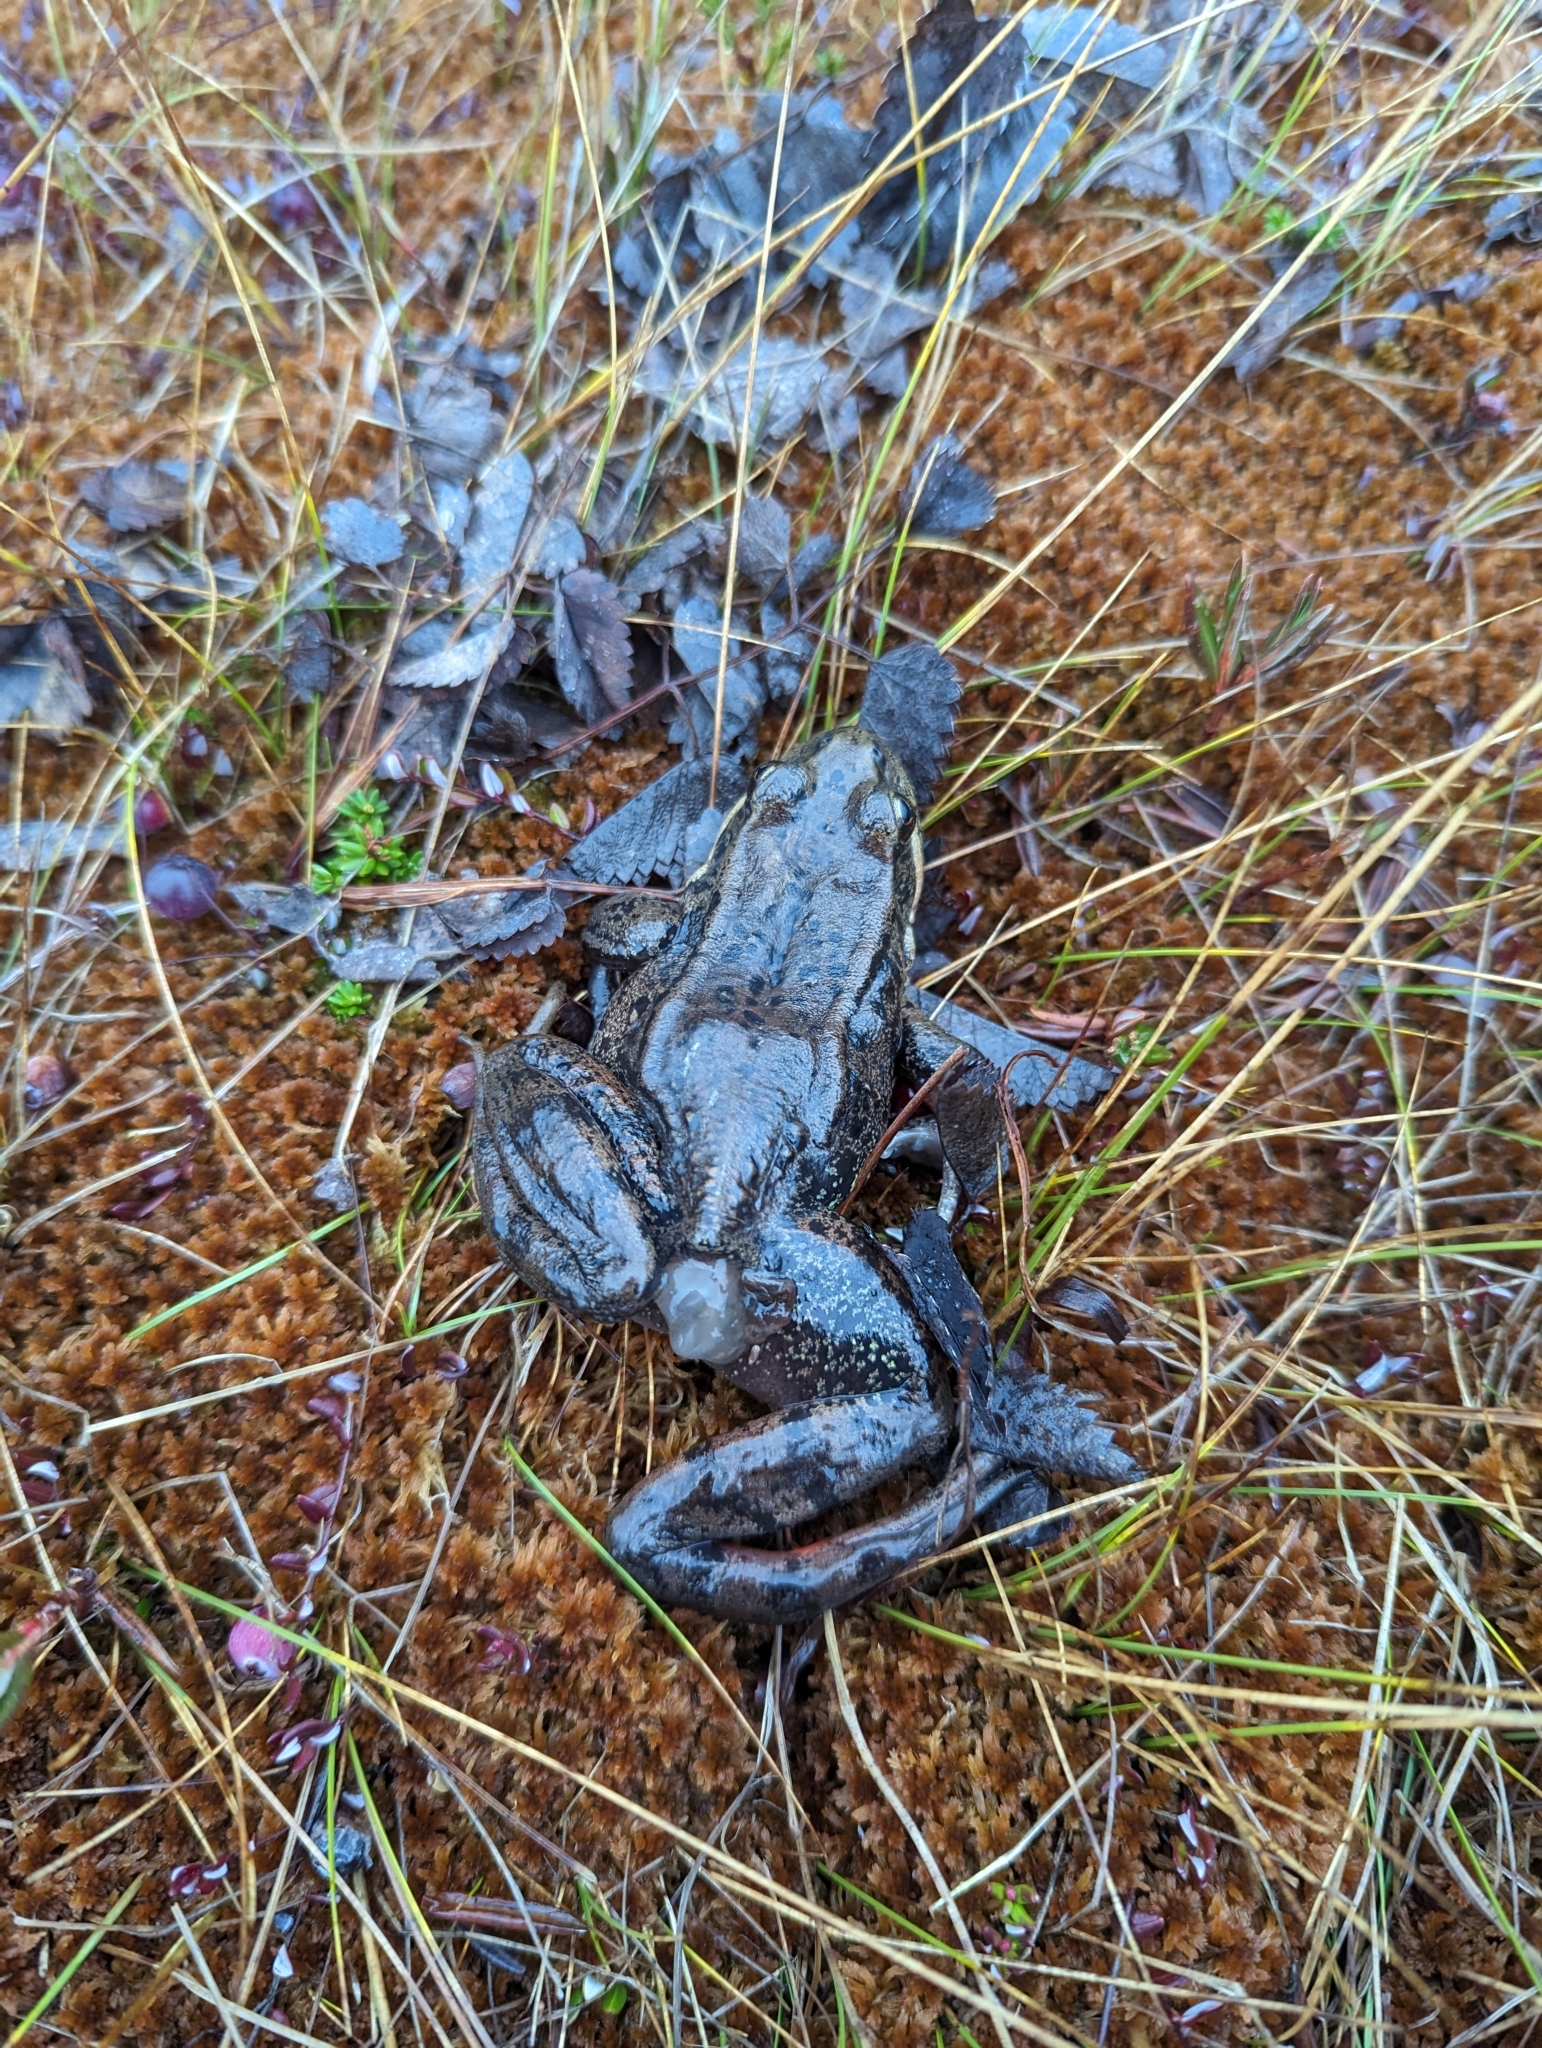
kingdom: Animalia
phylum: Chordata
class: Amphibia
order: Anura
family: Ranidae
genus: Rana
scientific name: Rana aurora
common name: Red-legged frog
